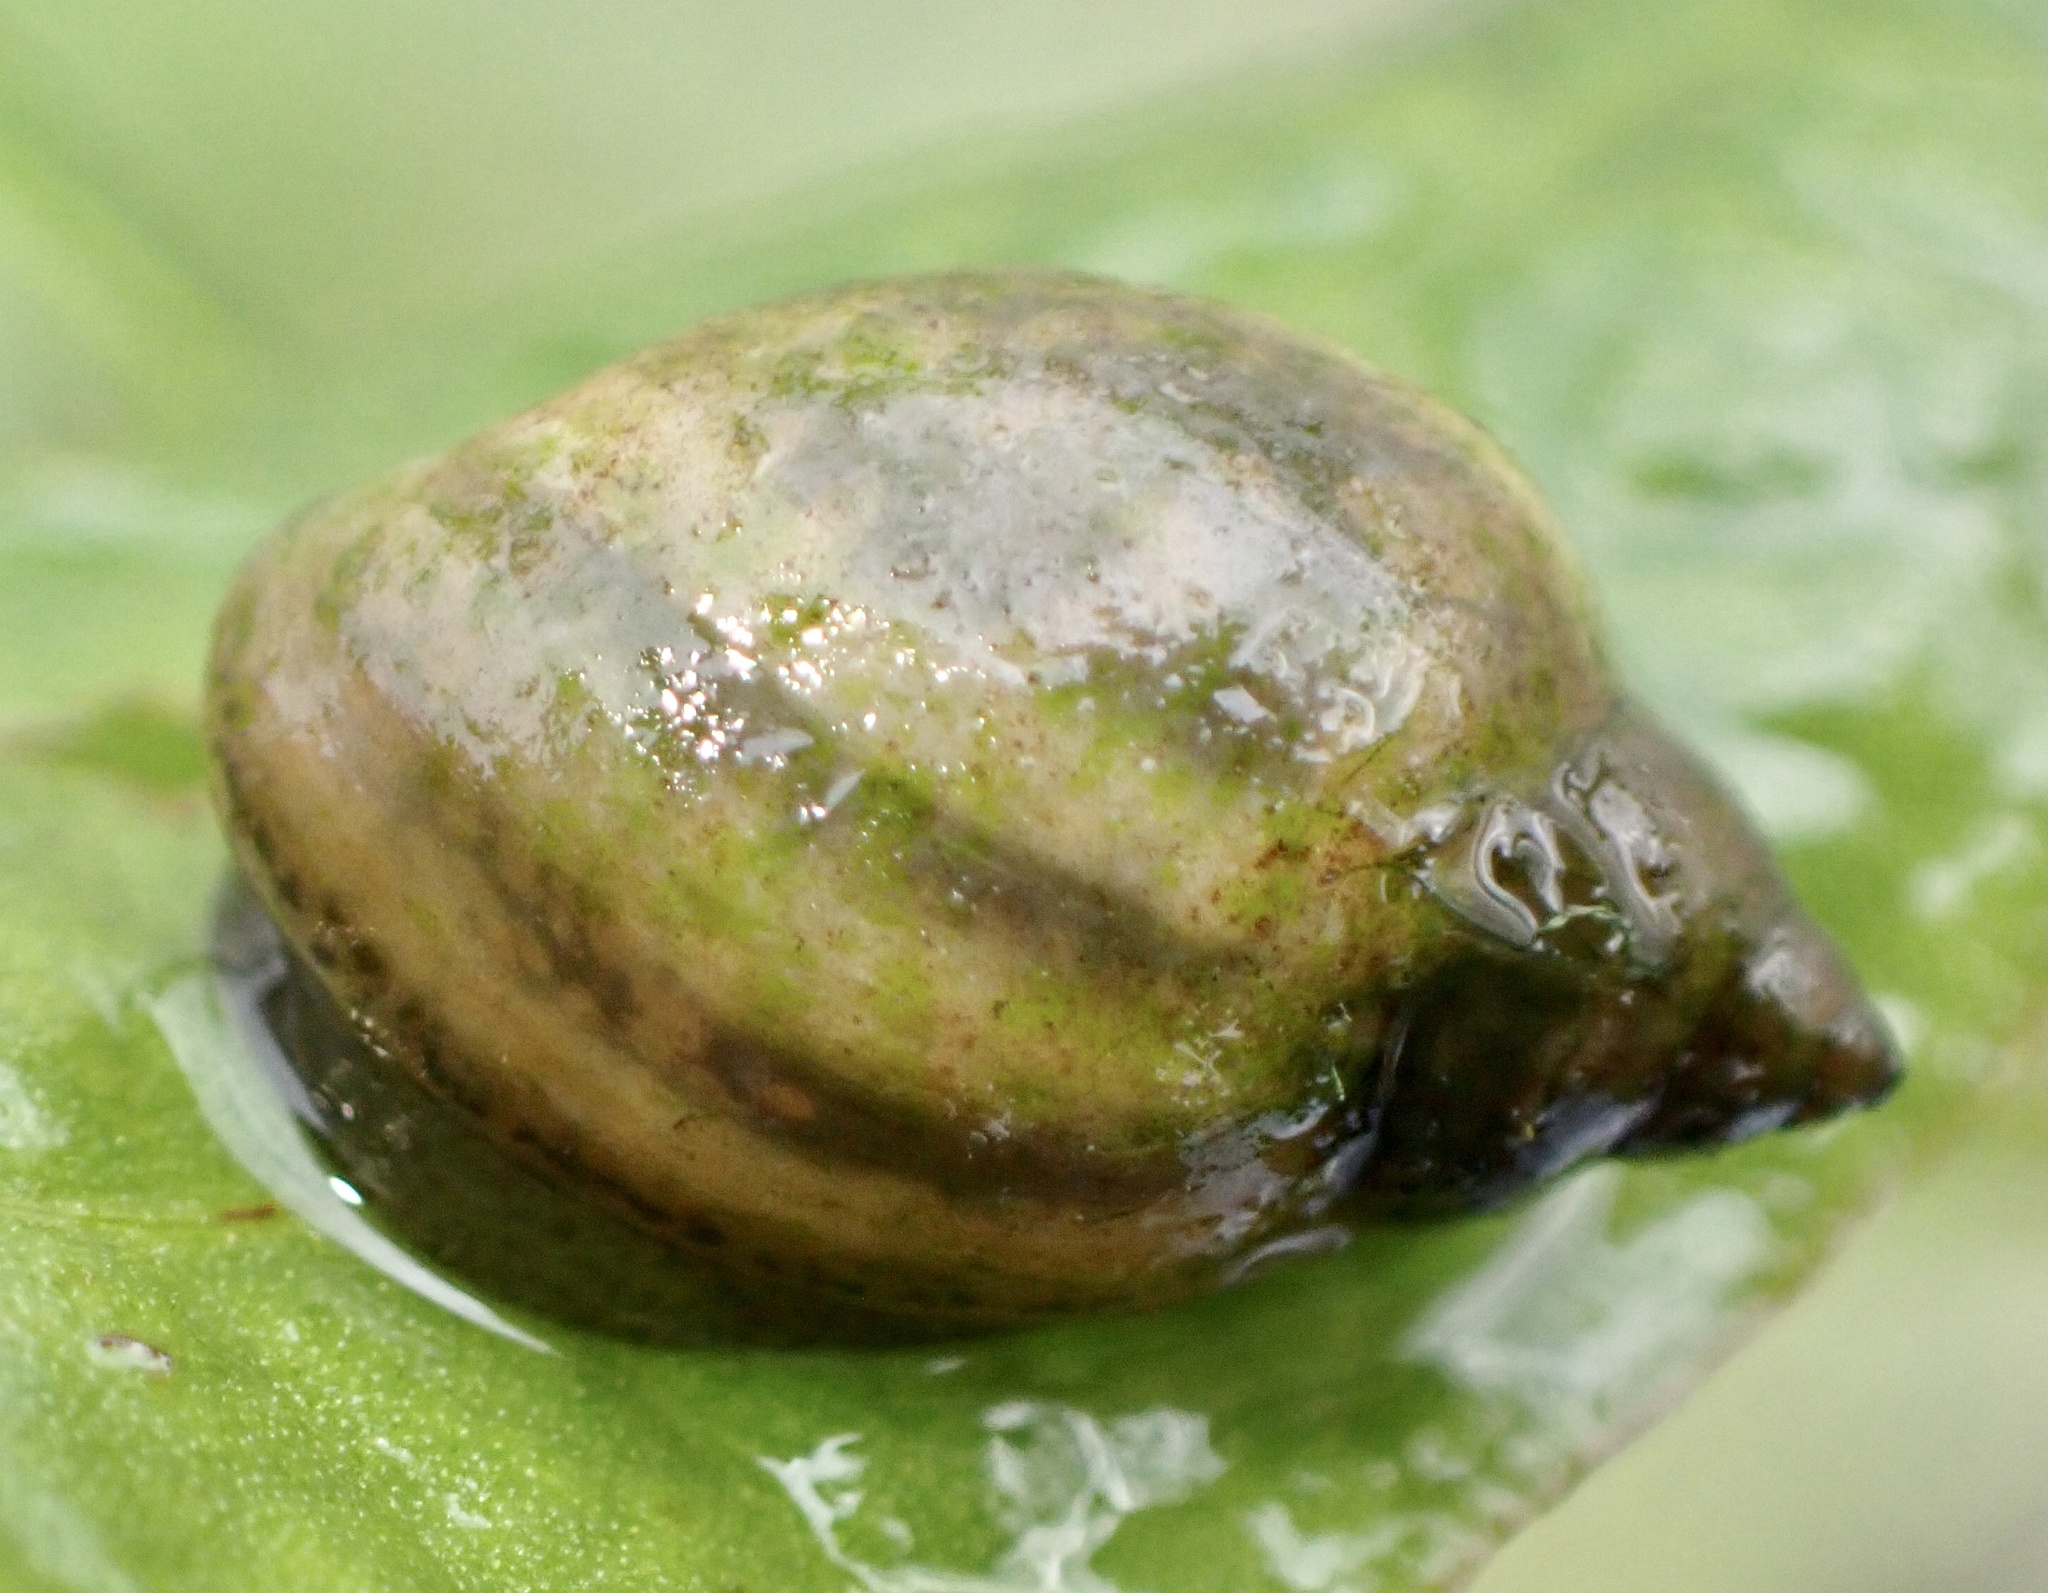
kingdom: Animalia
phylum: Mollusca
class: Gastropoda
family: Physidae
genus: Physella
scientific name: Physella acuta
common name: European physa
